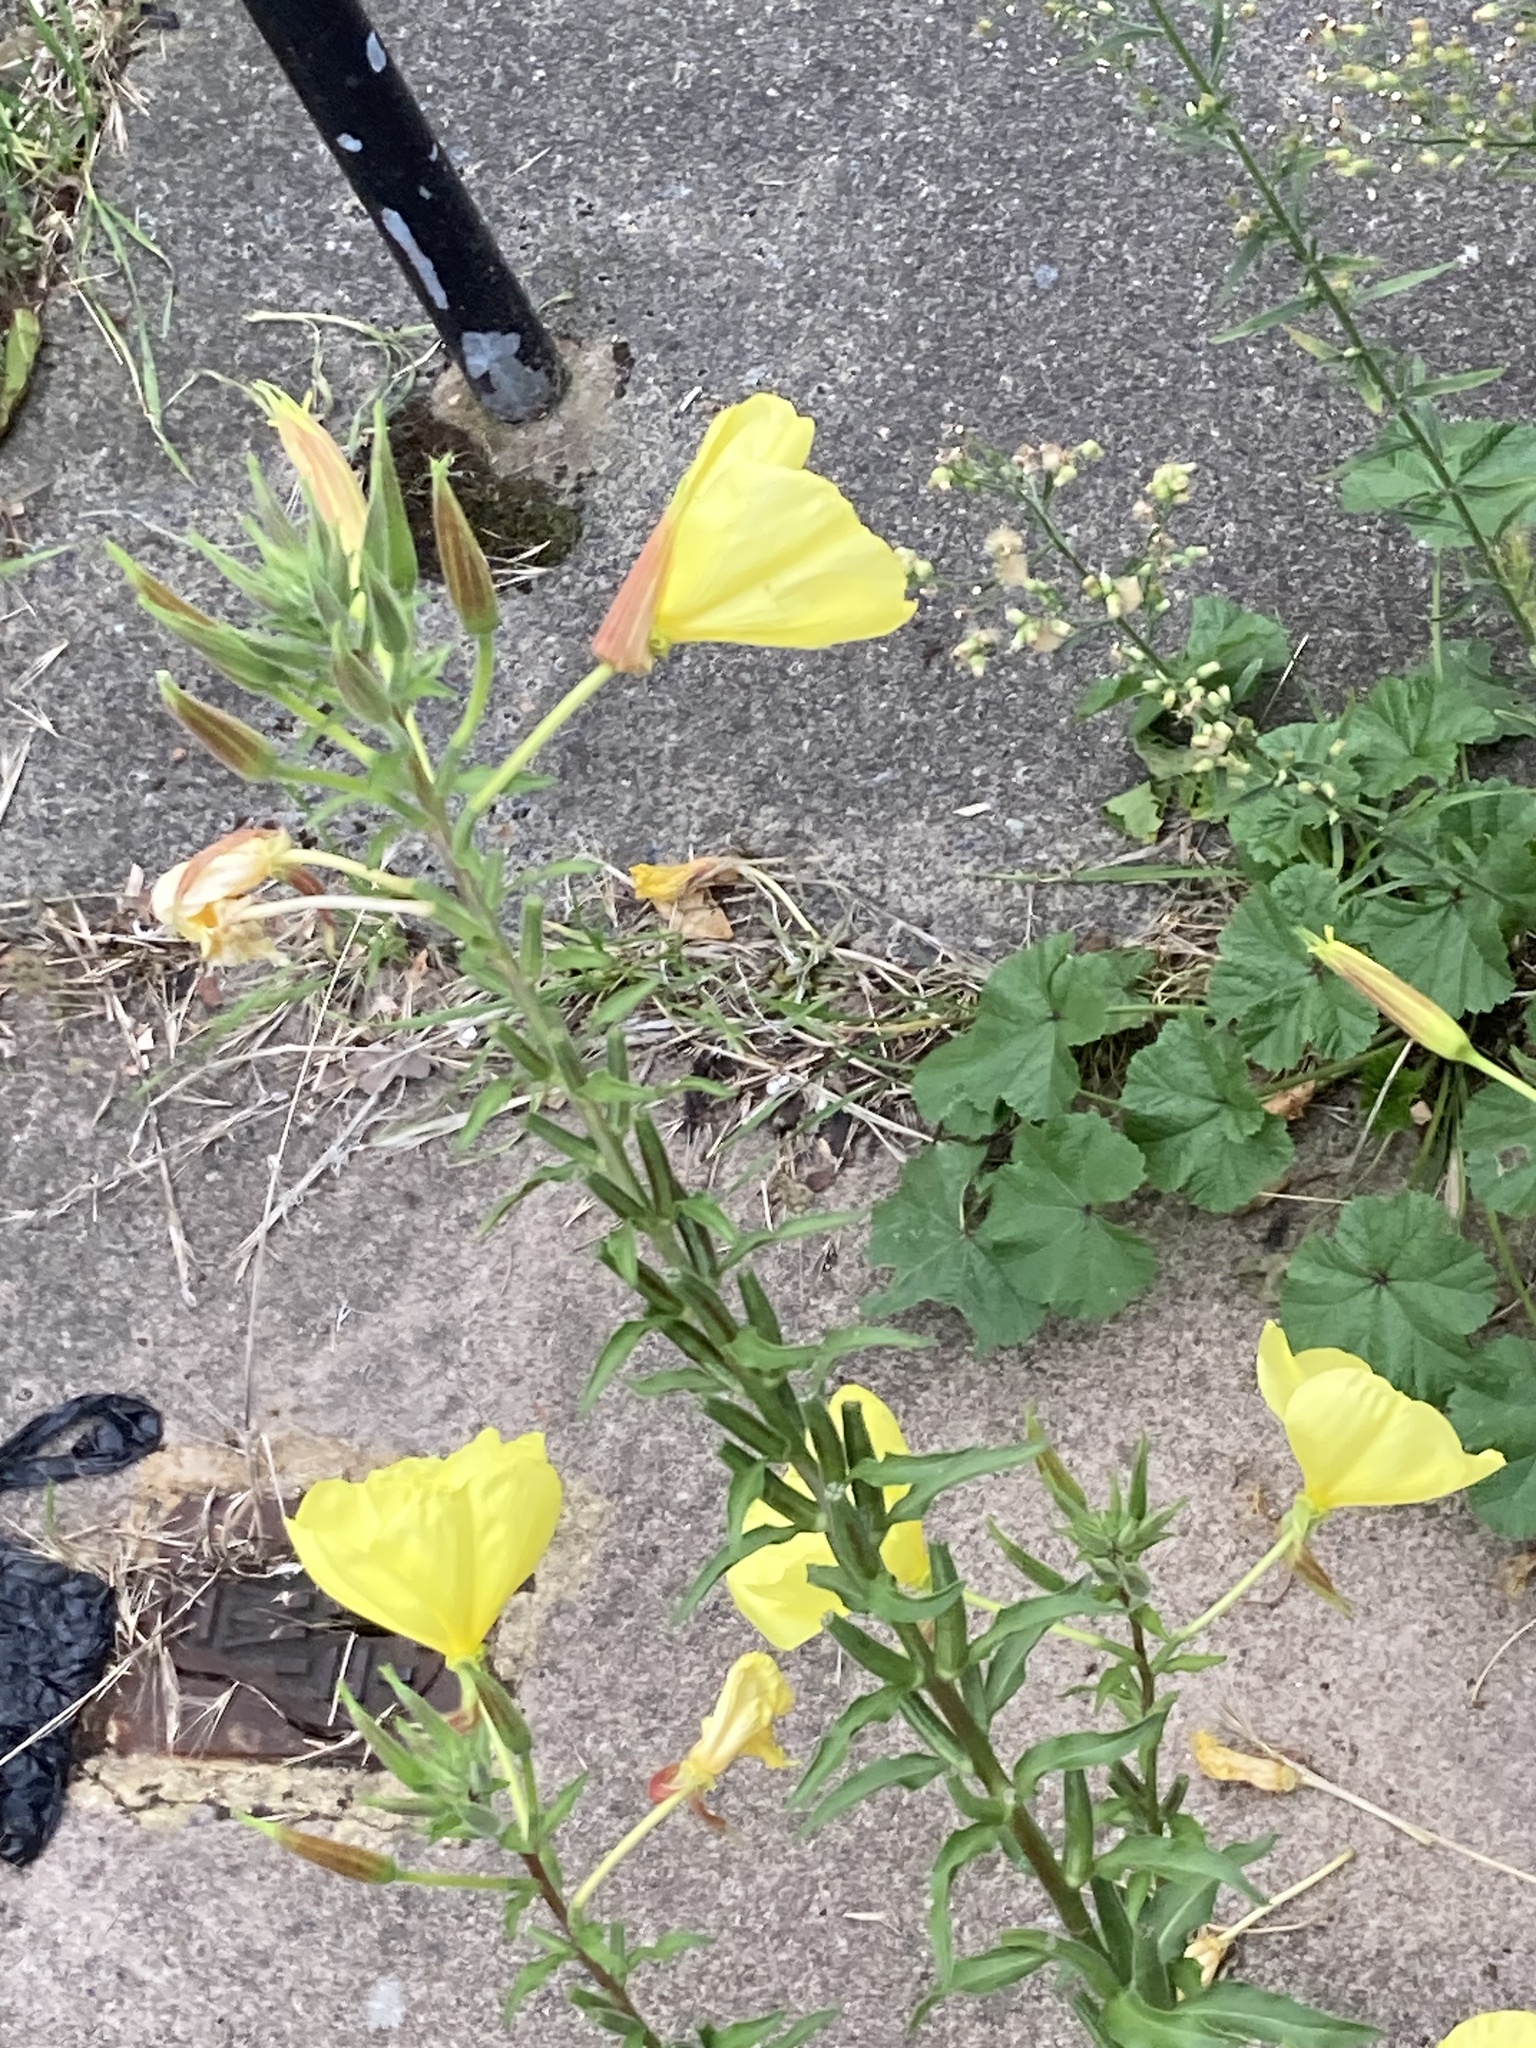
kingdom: Plantae
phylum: Tracheophyta
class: Magnoliopsida
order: Myrtales
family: Onagraceae
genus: Oenothera
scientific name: Oenothera glazioviana
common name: Large-flowered evening-primrose
